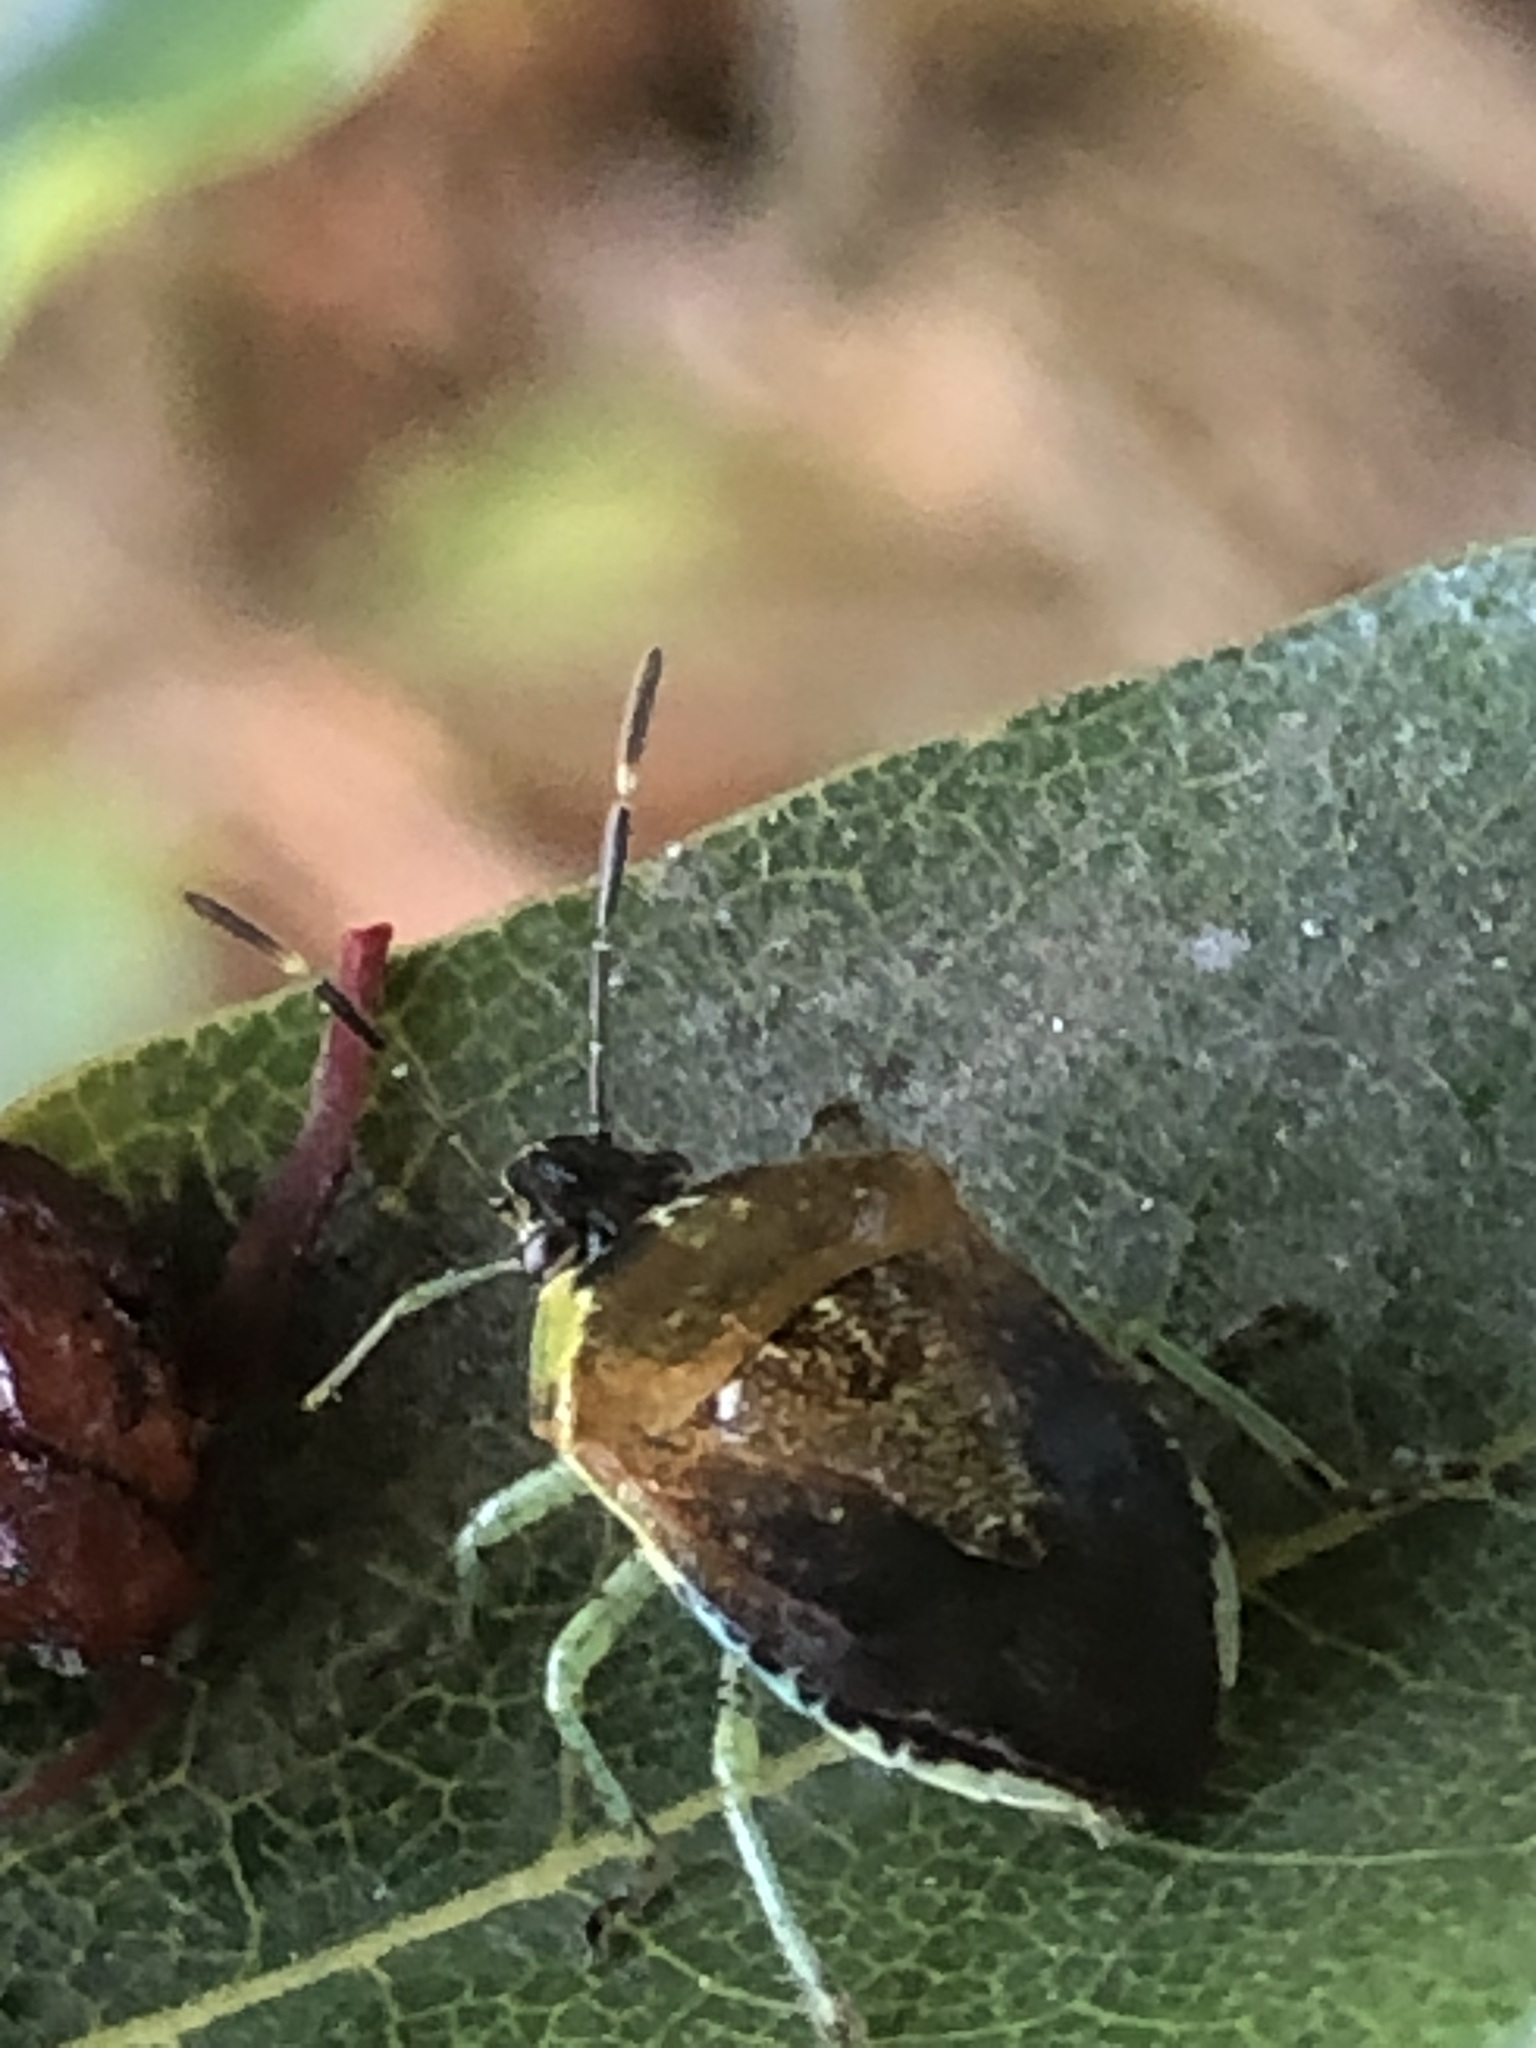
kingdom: Animalia
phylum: Arthropoda
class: Insecta
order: Hemiptera
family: Pentatomidae
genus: Monteithiella
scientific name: Monteithiella
